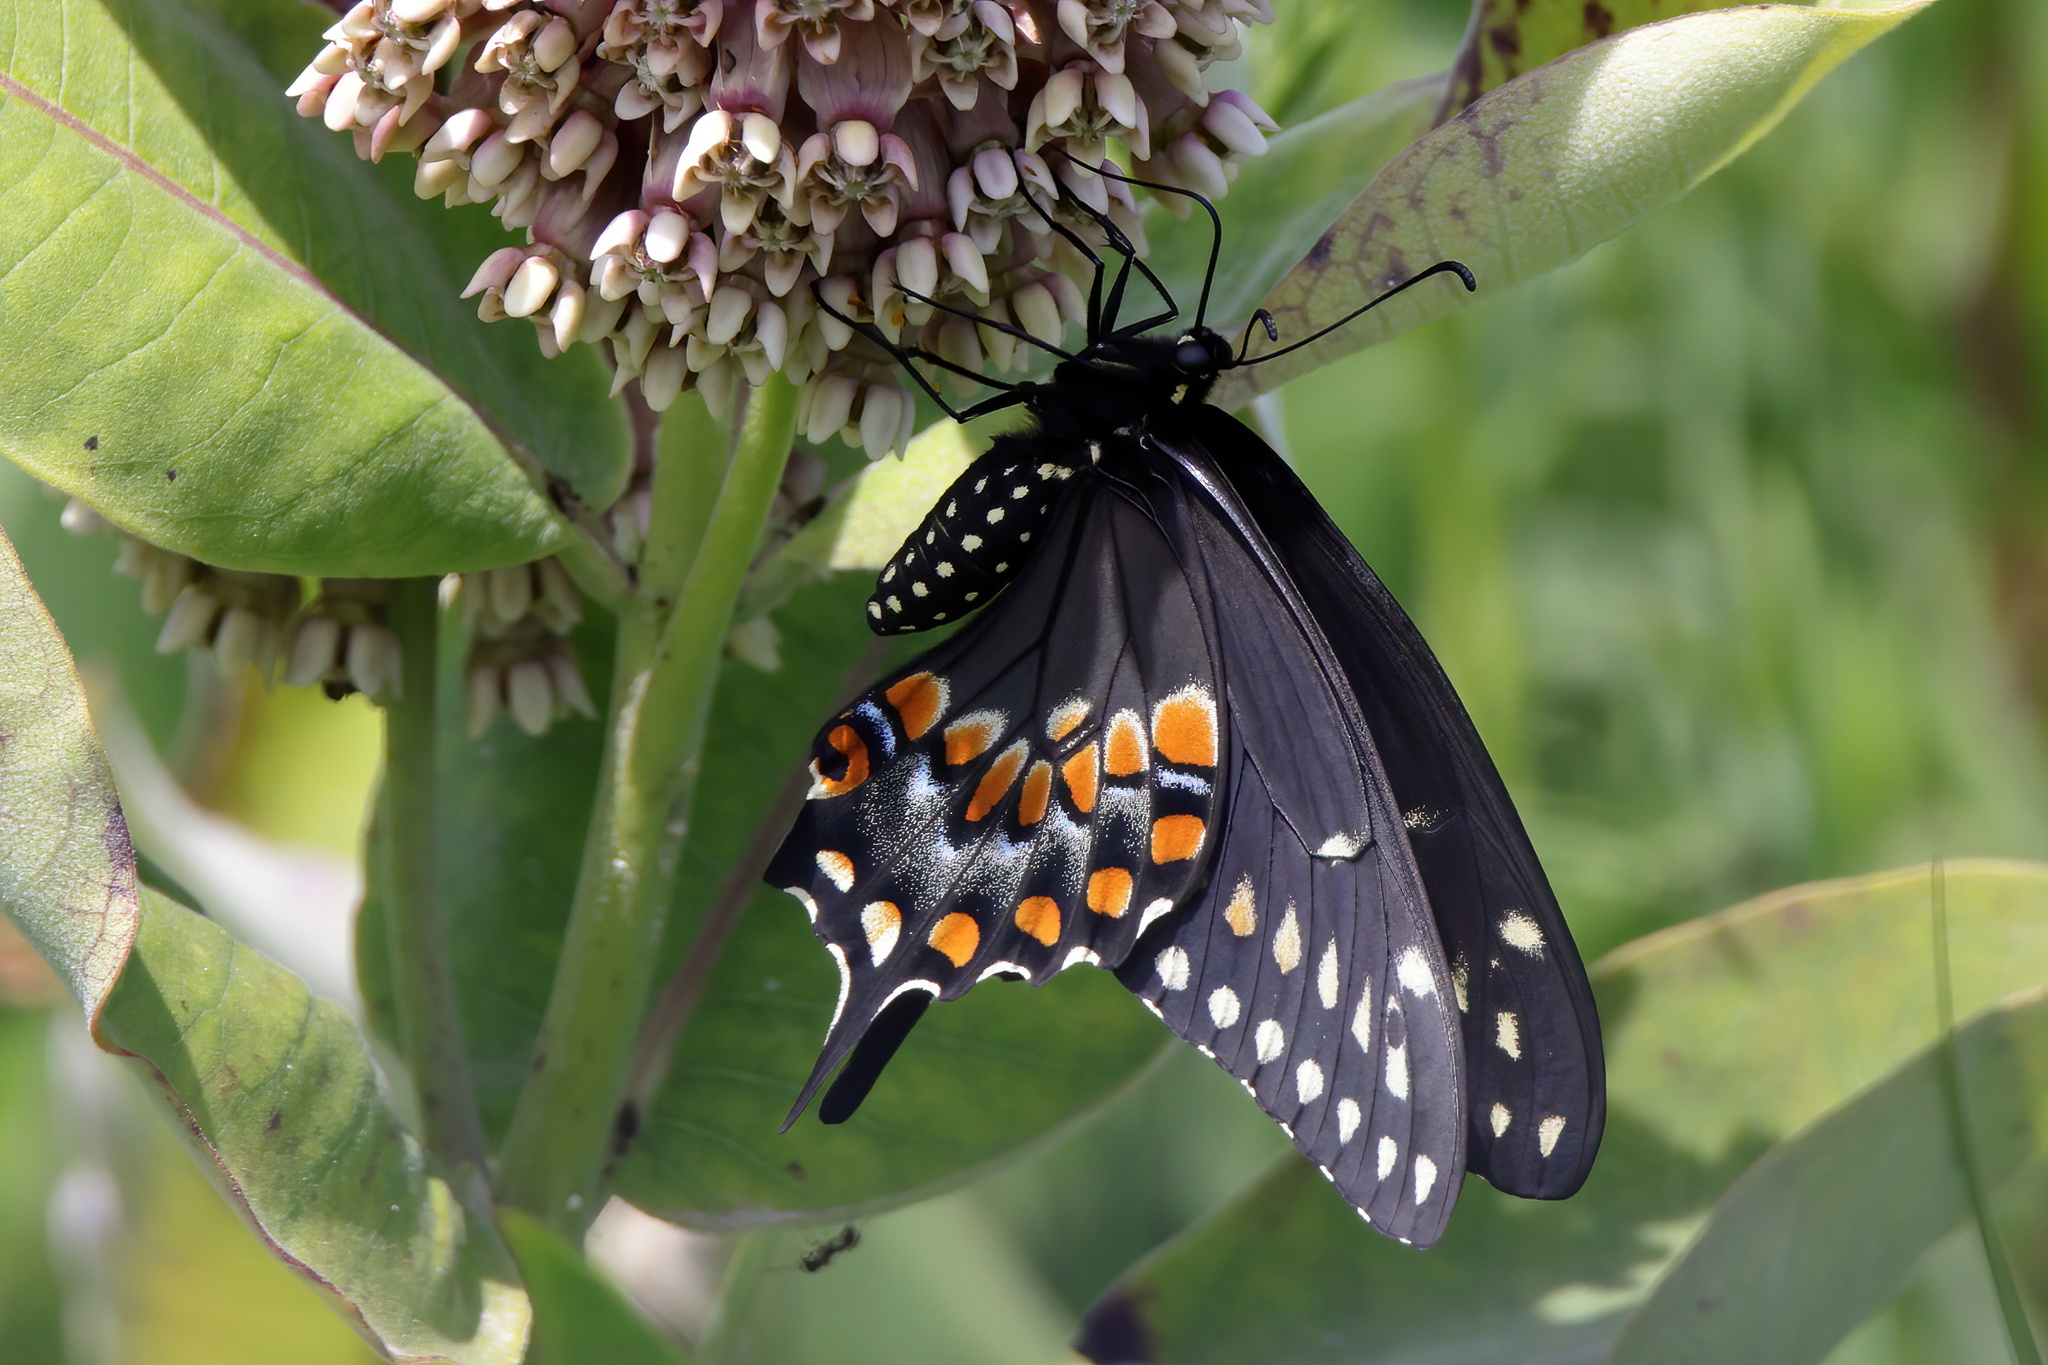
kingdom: Animalia
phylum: Arthropoda
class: Insecta
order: Lepidoptera
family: Papilionidae
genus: Papilio
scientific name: Papilio polyxenes
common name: Black swallowtail
